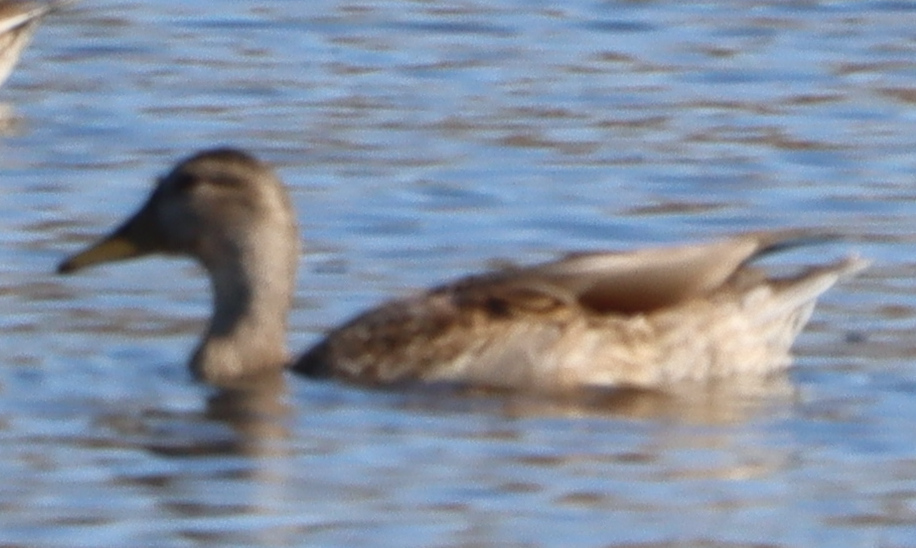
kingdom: Animalia
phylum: Chordata
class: Aves
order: Anseriformes
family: Anatidae
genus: Anas
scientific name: Anas platyrhynchos
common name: Mallard
